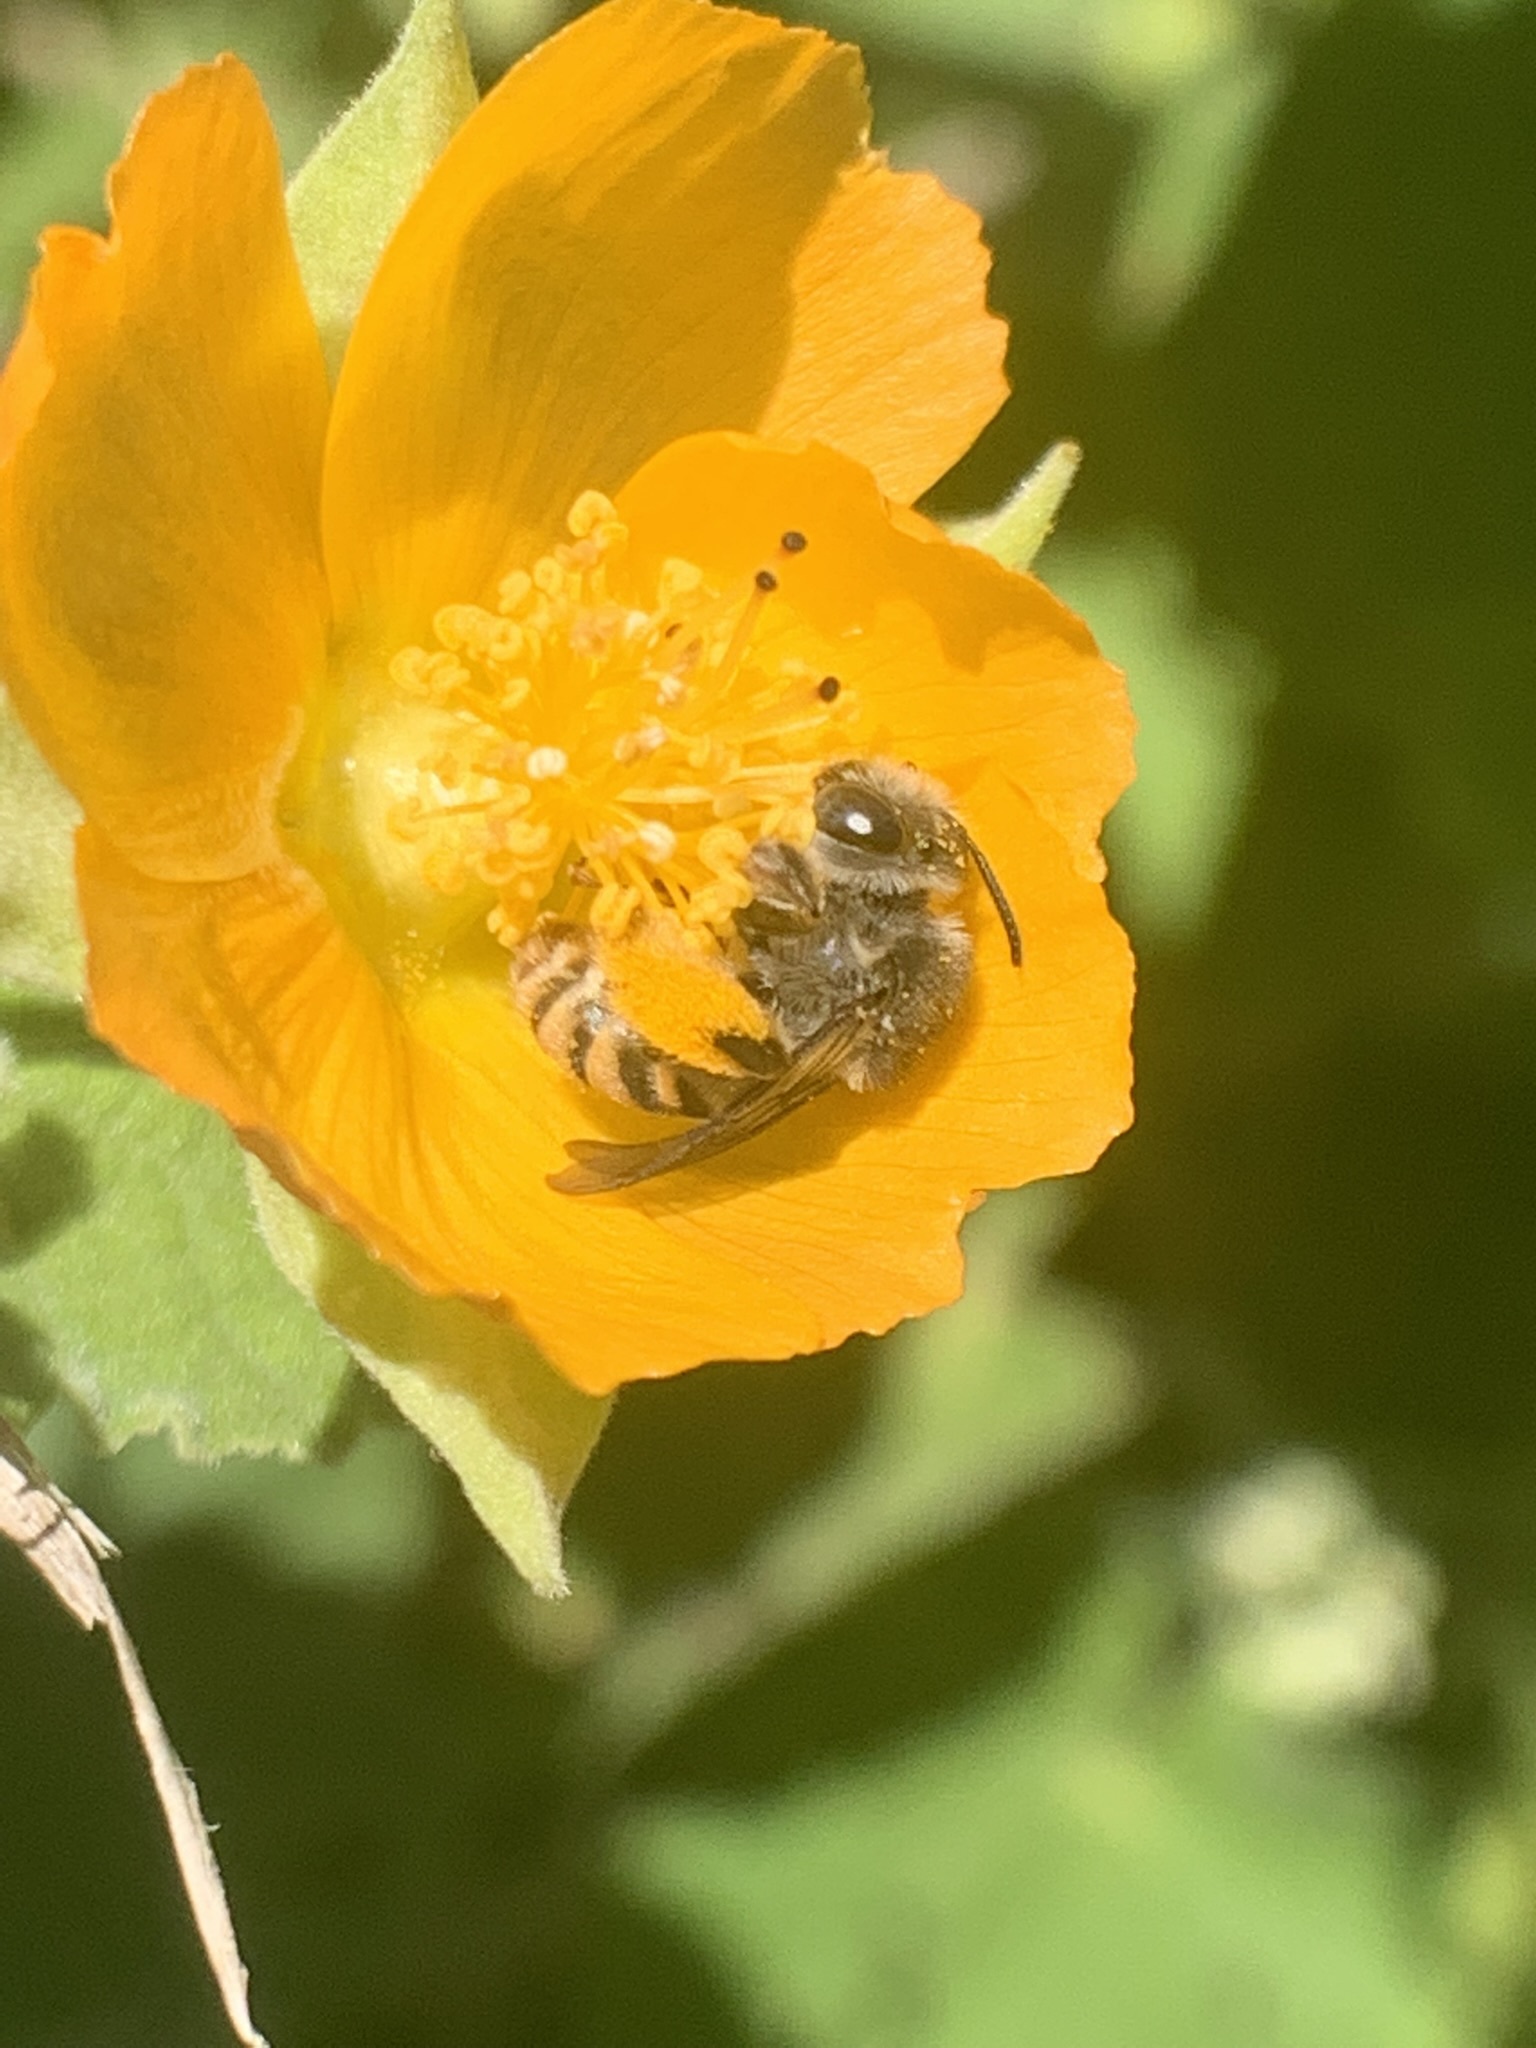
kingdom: Plantae
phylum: Tracheophyta
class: Magnoliopsida
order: Malvales
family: Malvaceae
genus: Abutilon
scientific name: Abutilon grandifolium
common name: Hairy abutilon
